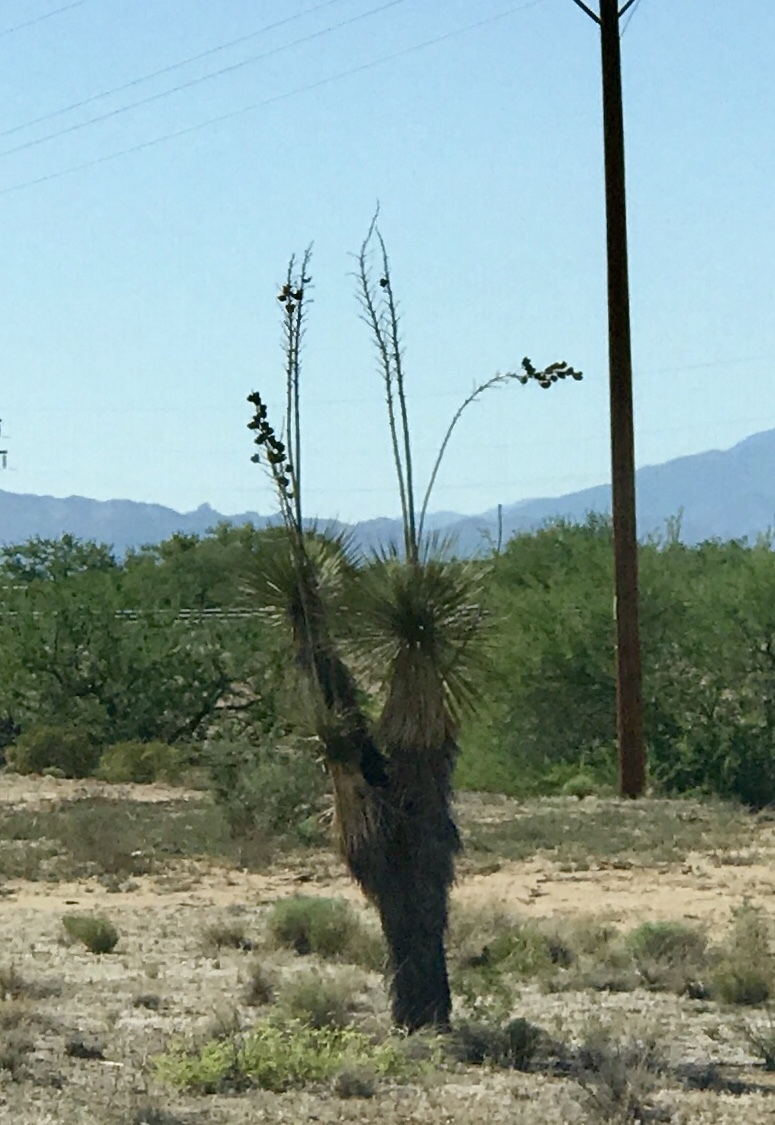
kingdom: Plantae
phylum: Tracheophyta
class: Liliopsida
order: Asparagales
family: Asparagaceae
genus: Yucca
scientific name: Yucca elata
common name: Palmella
